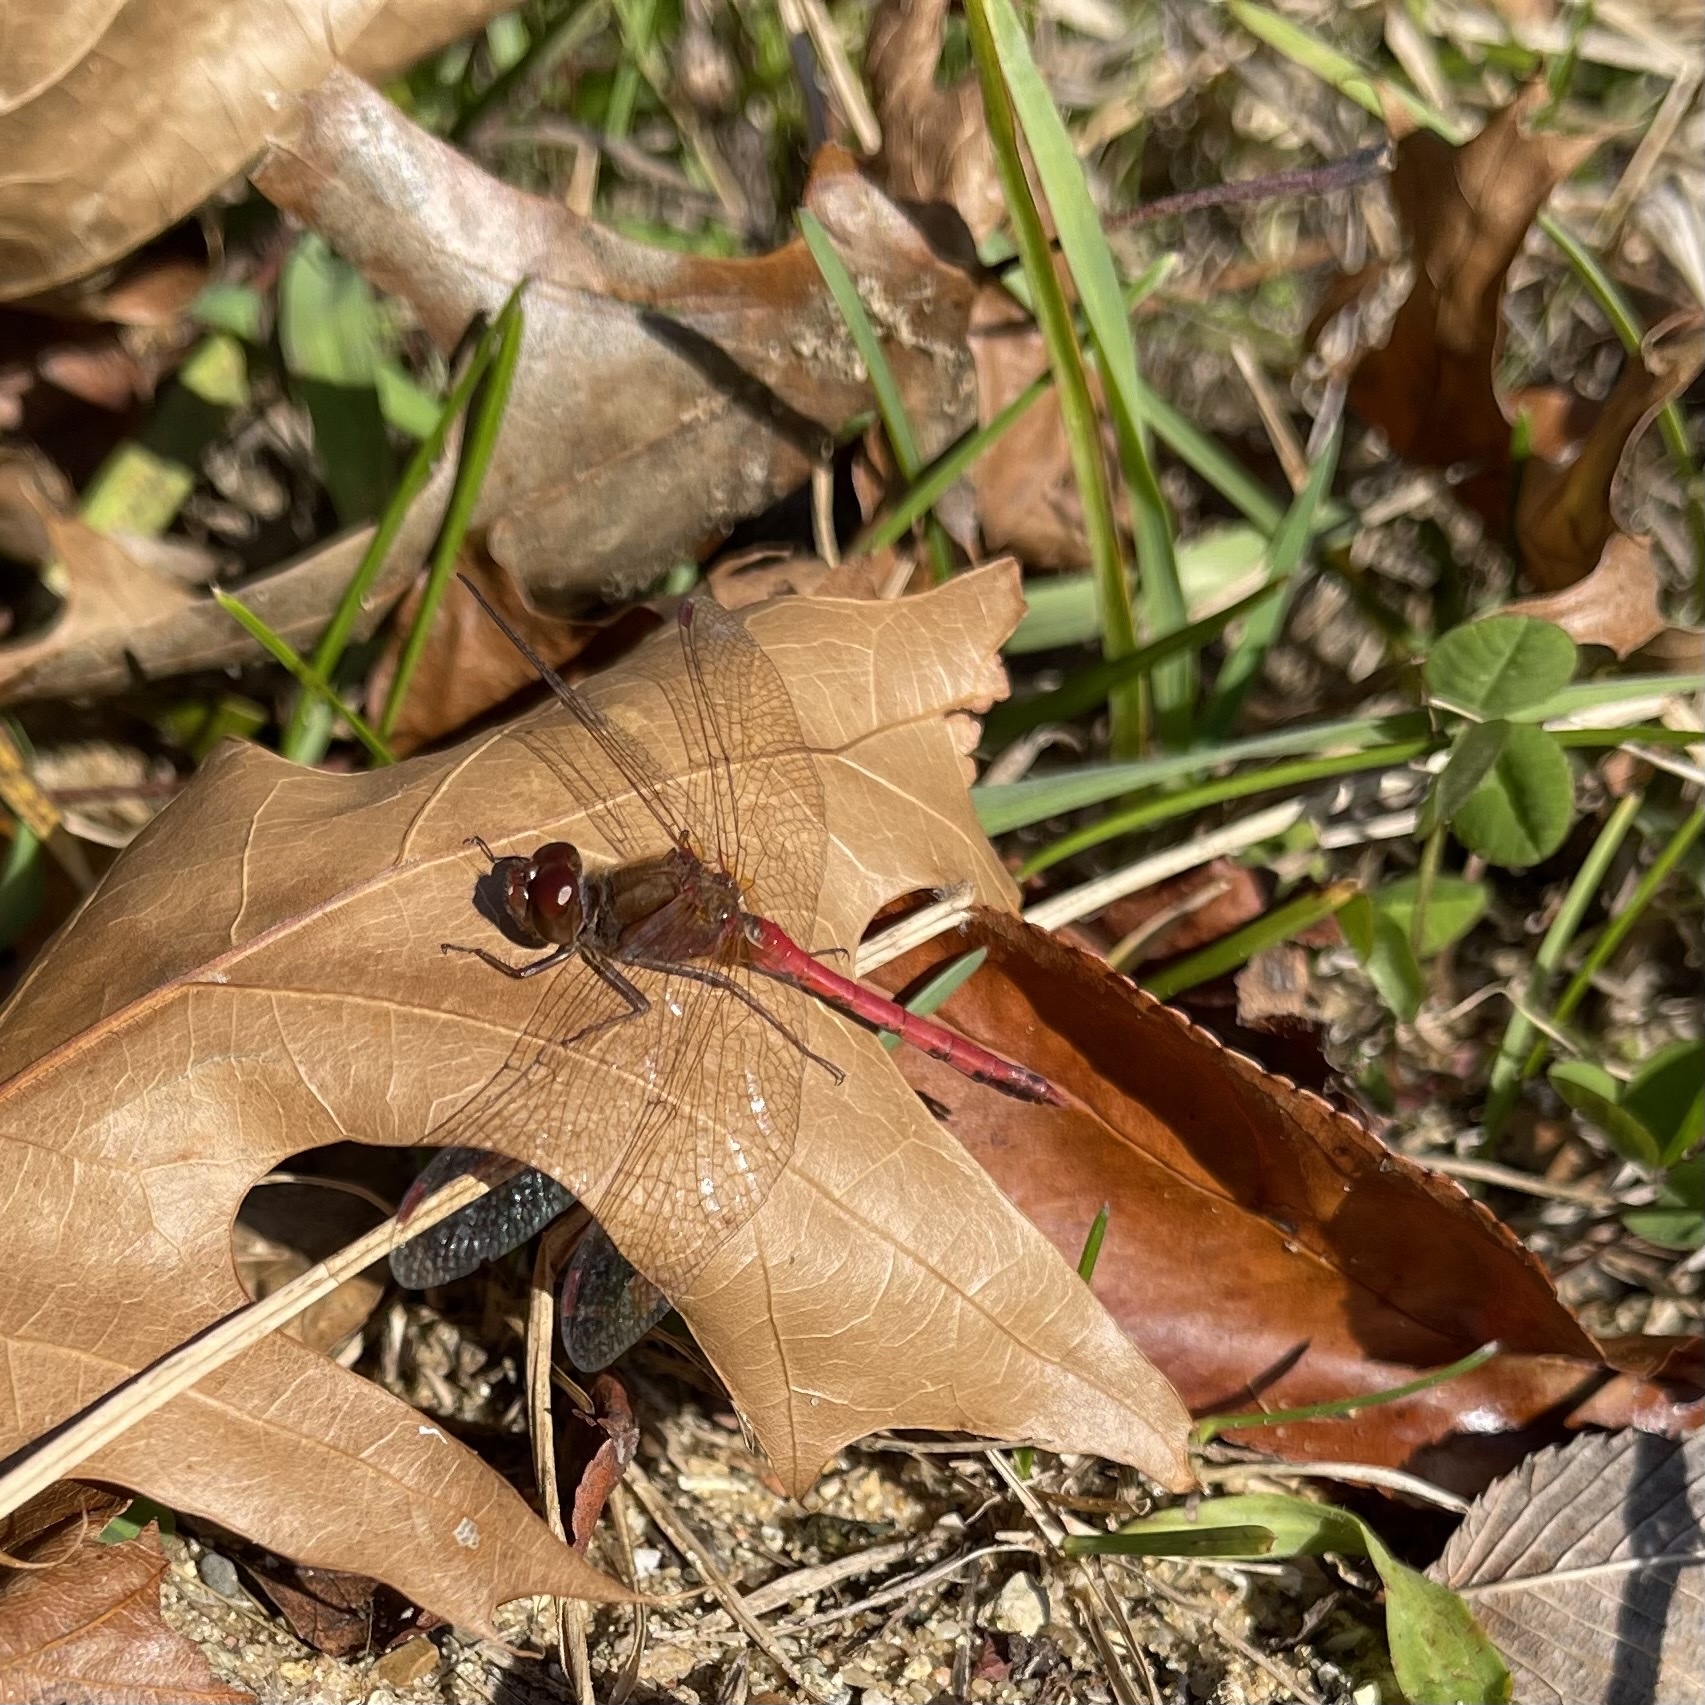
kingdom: Animalia
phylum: Arthropoda
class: Insecta
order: Odonata
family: Libellulidae
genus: Sympetrum
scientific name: Sympetrum vicinum
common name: Autumn meadowhawk
